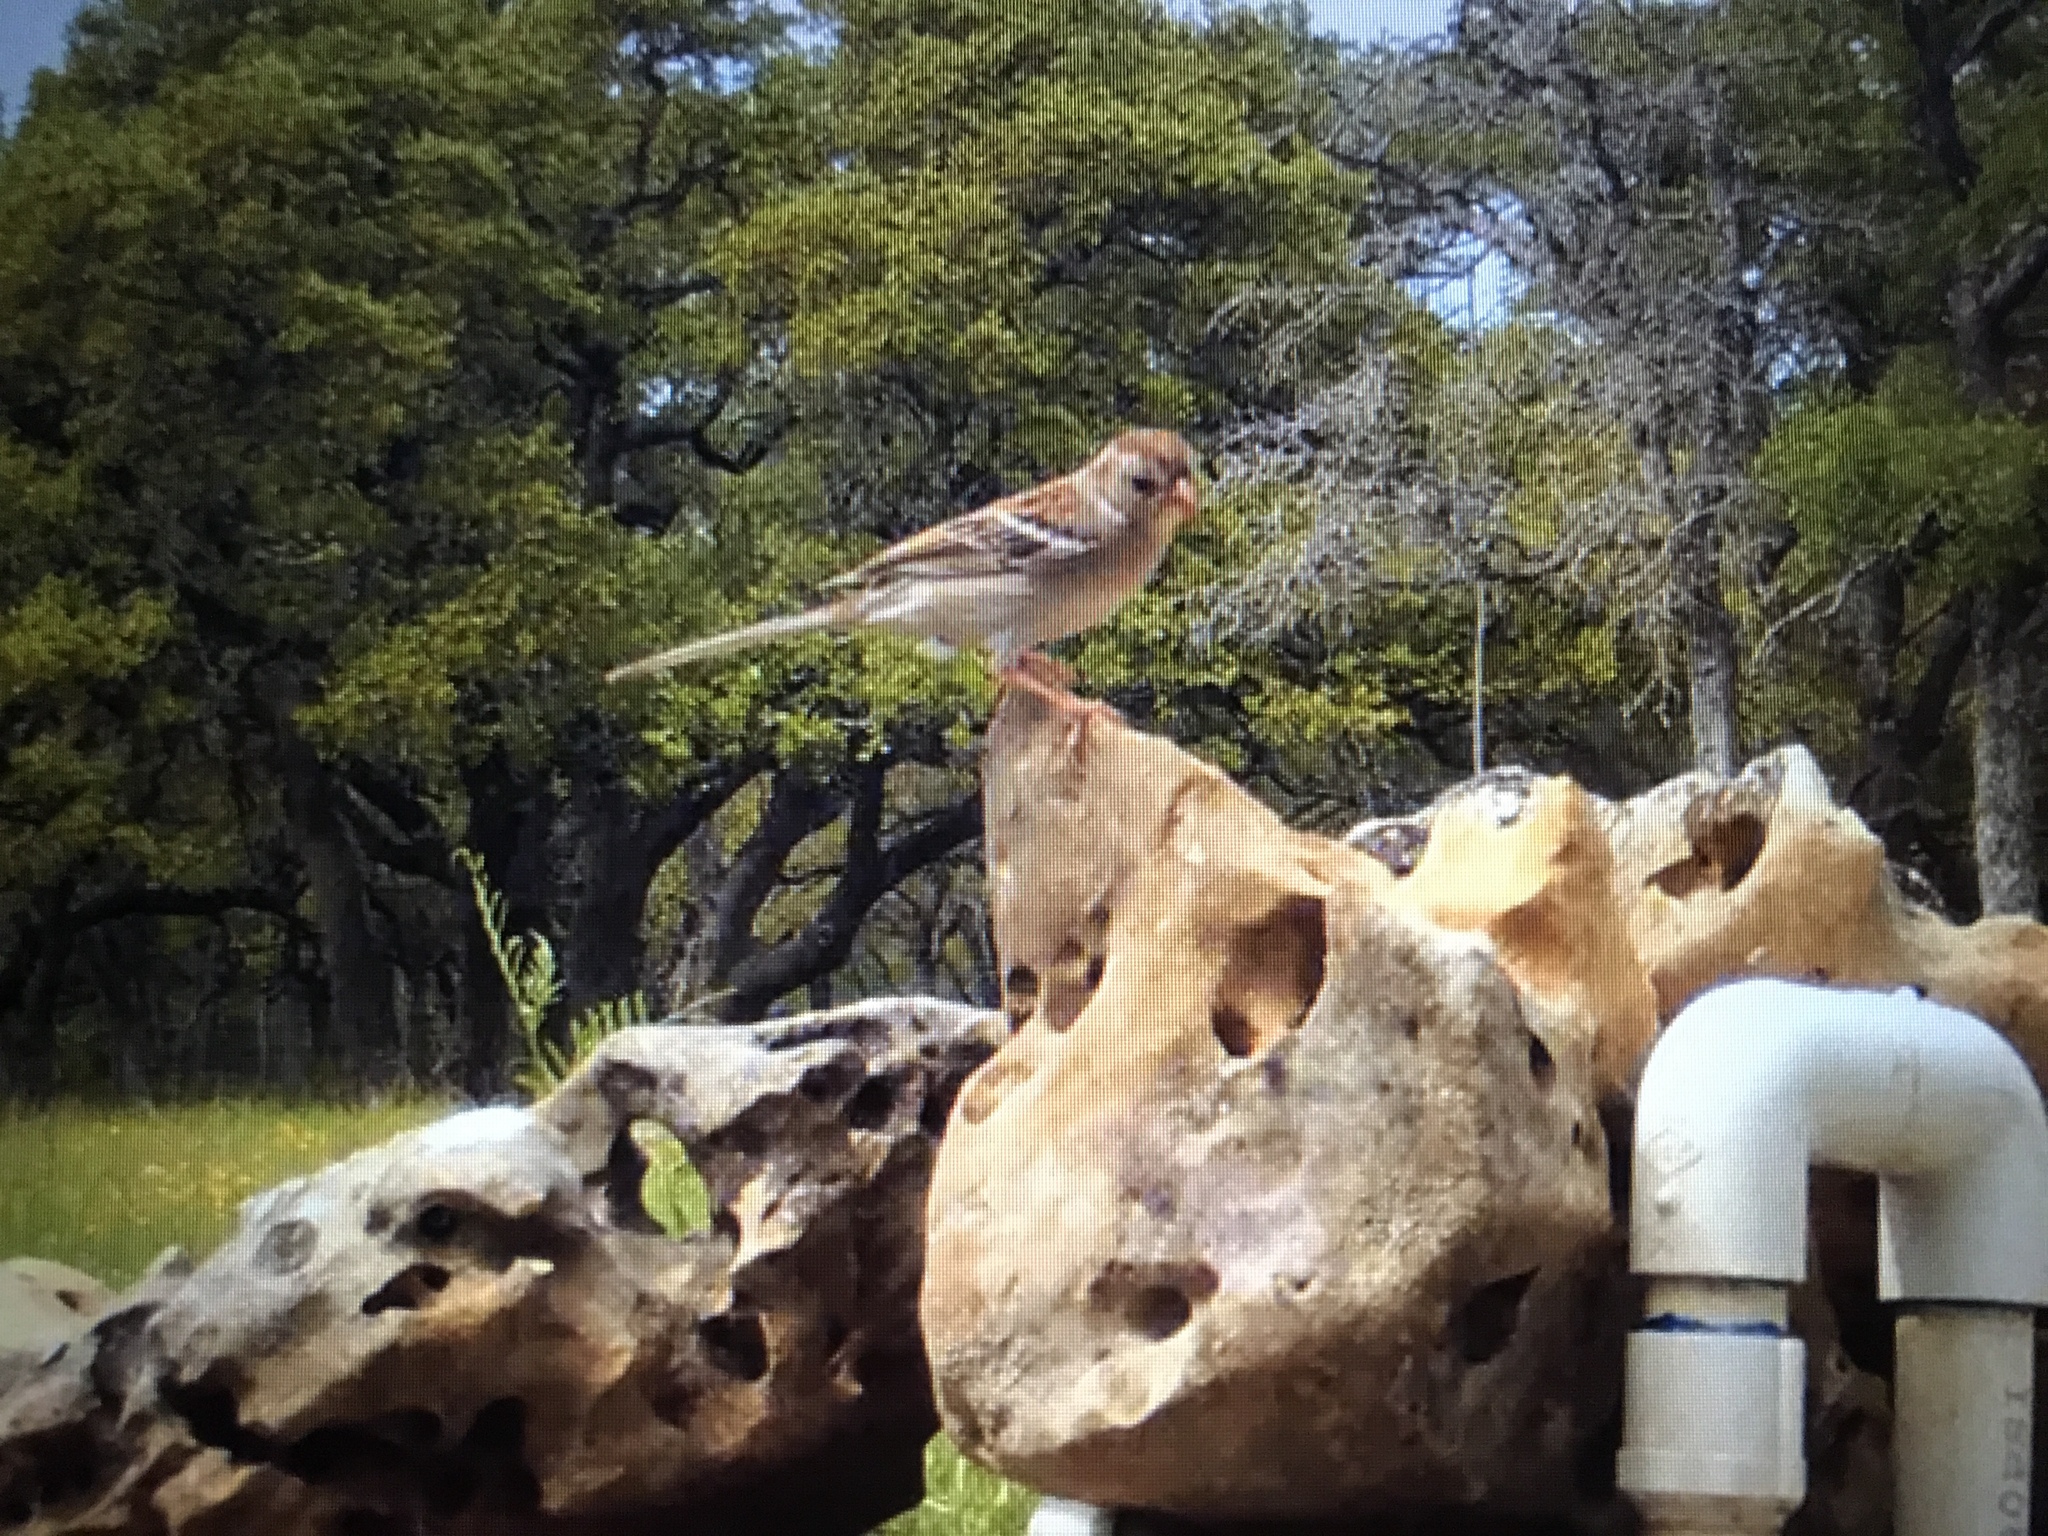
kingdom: Animalia
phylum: Chordata
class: Aves
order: Passeriformes
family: Passerellidae
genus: Spizella
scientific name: Spizella pusilla
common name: Field sparrow
